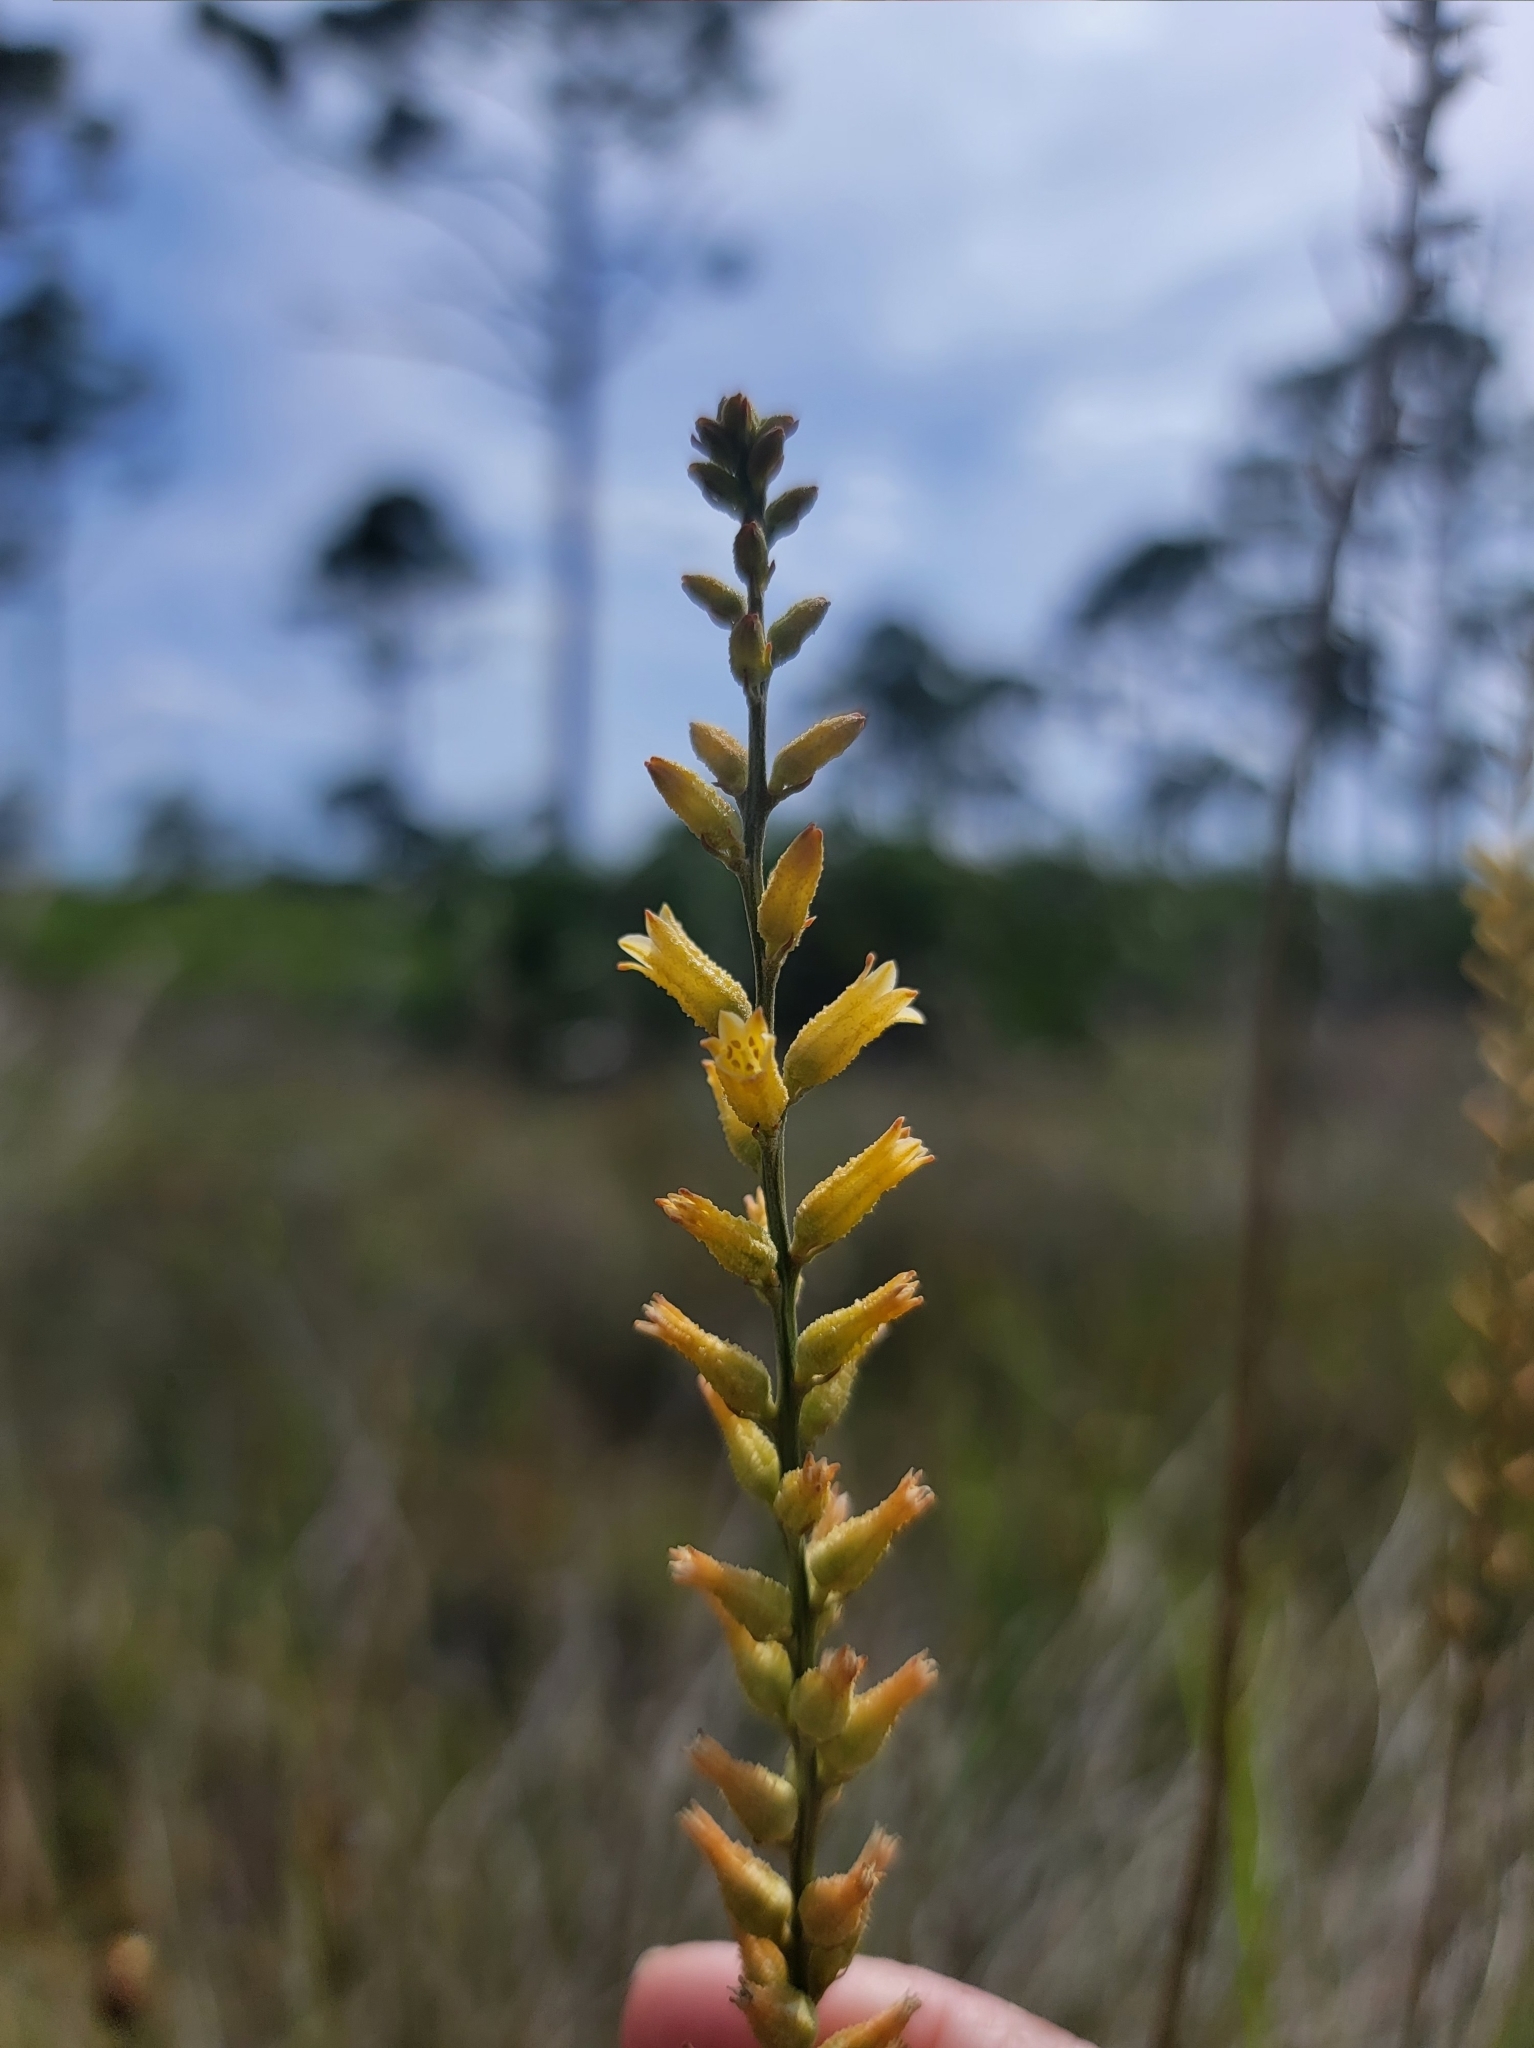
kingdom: Plantae
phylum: Tracheophyta
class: Liliopsida
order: Dioscoreales
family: Nartheciaceae
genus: Aletris
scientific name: Aletris lutea
